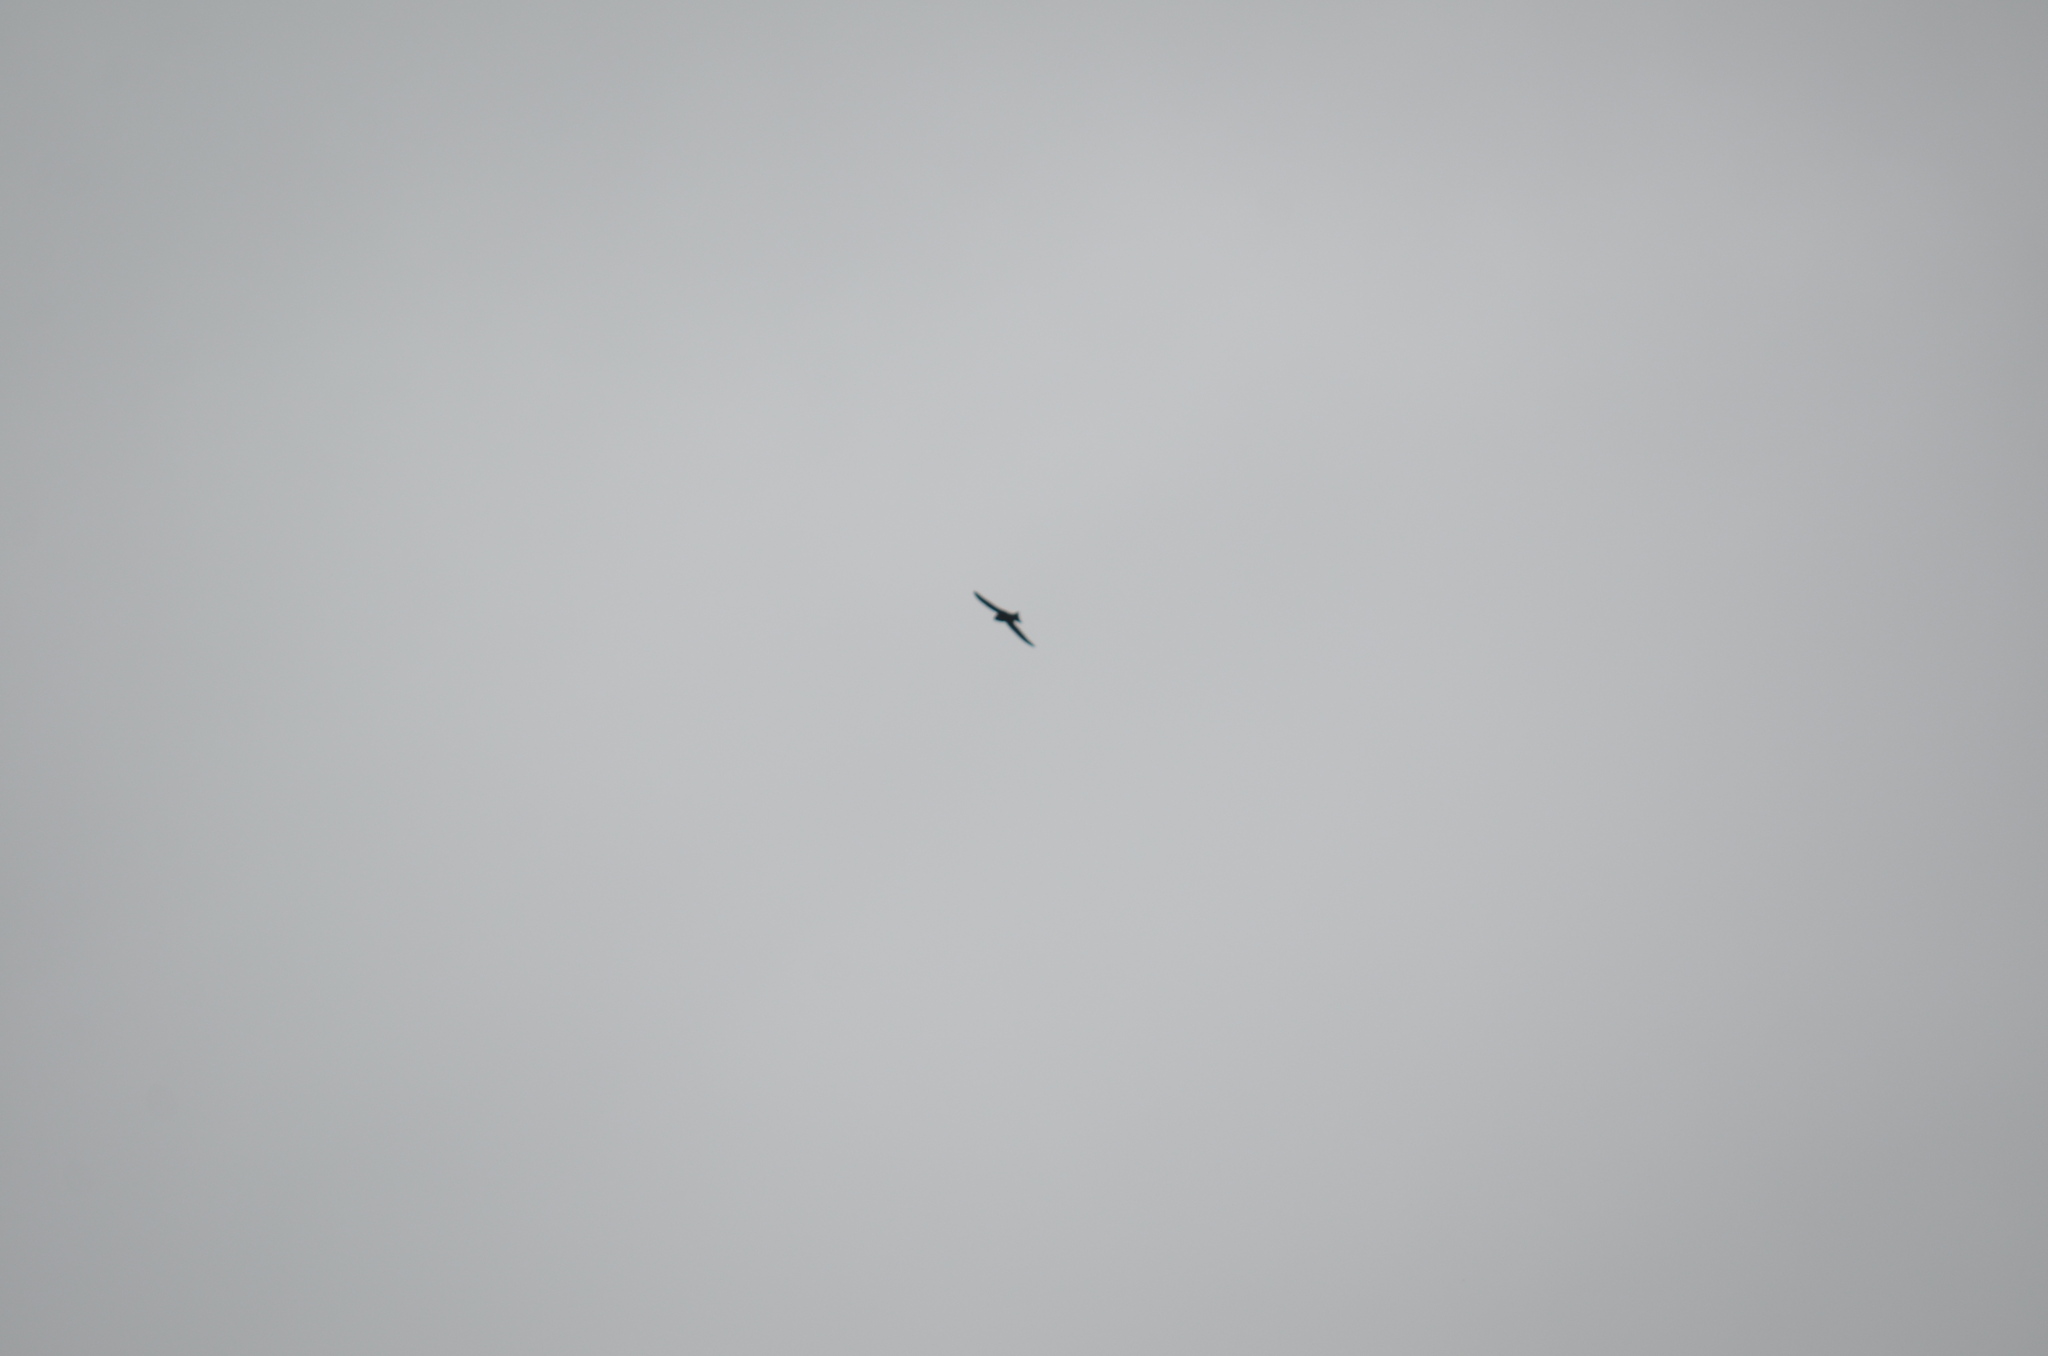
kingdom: Animalia
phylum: Chordata
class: Aves
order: Apodiformes
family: Apodidae
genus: Cypseloides
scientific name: Cypseloides niger
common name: Black swift
